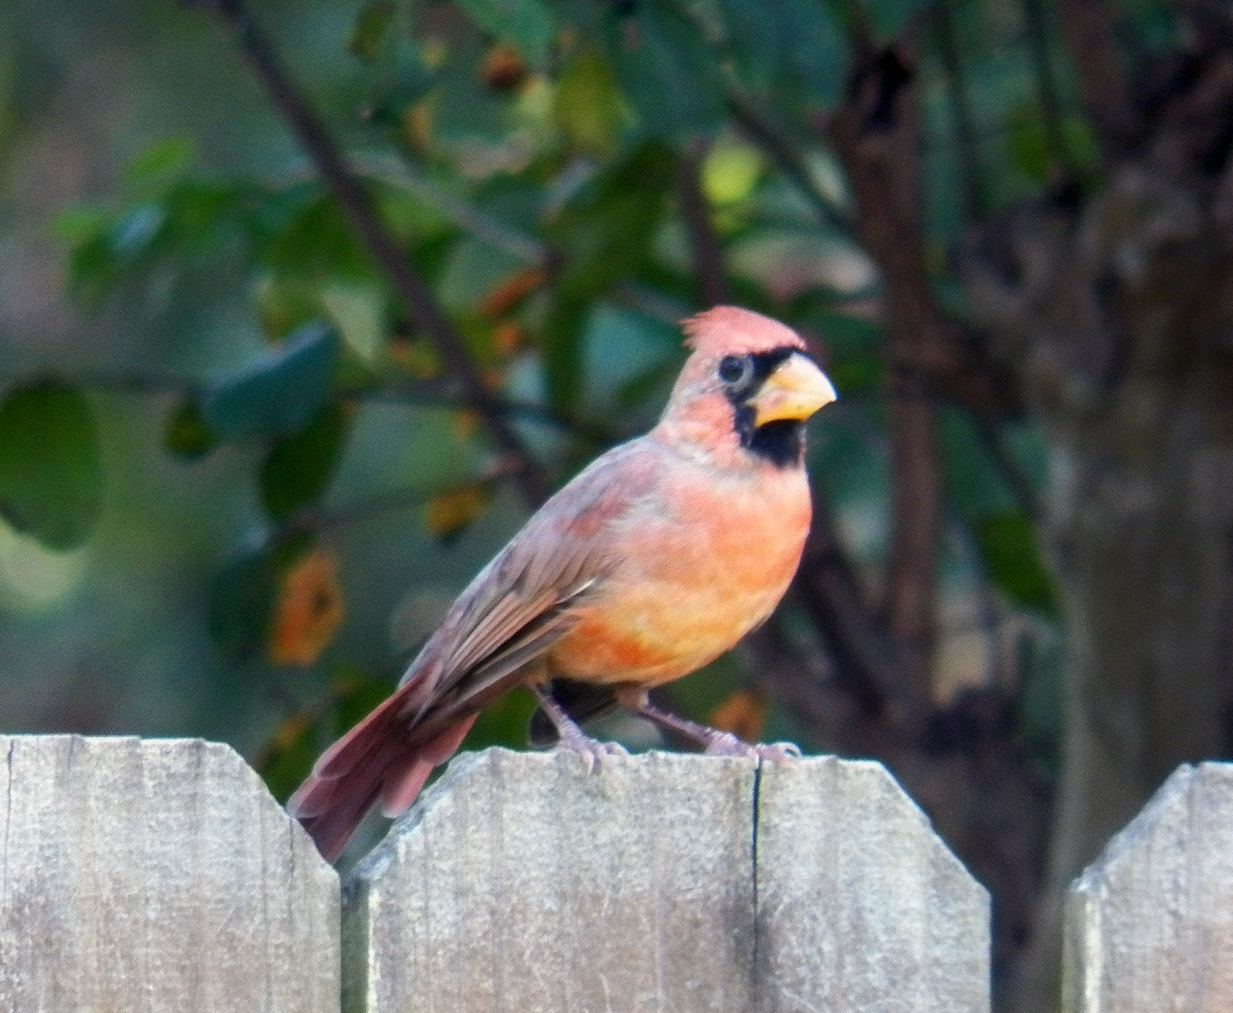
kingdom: Animalia
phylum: Chordata
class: Aves
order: Passeriformes
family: Cardinalidae
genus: Cardinalis
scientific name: Cardinalis cardinalis
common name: Northern cardinal
